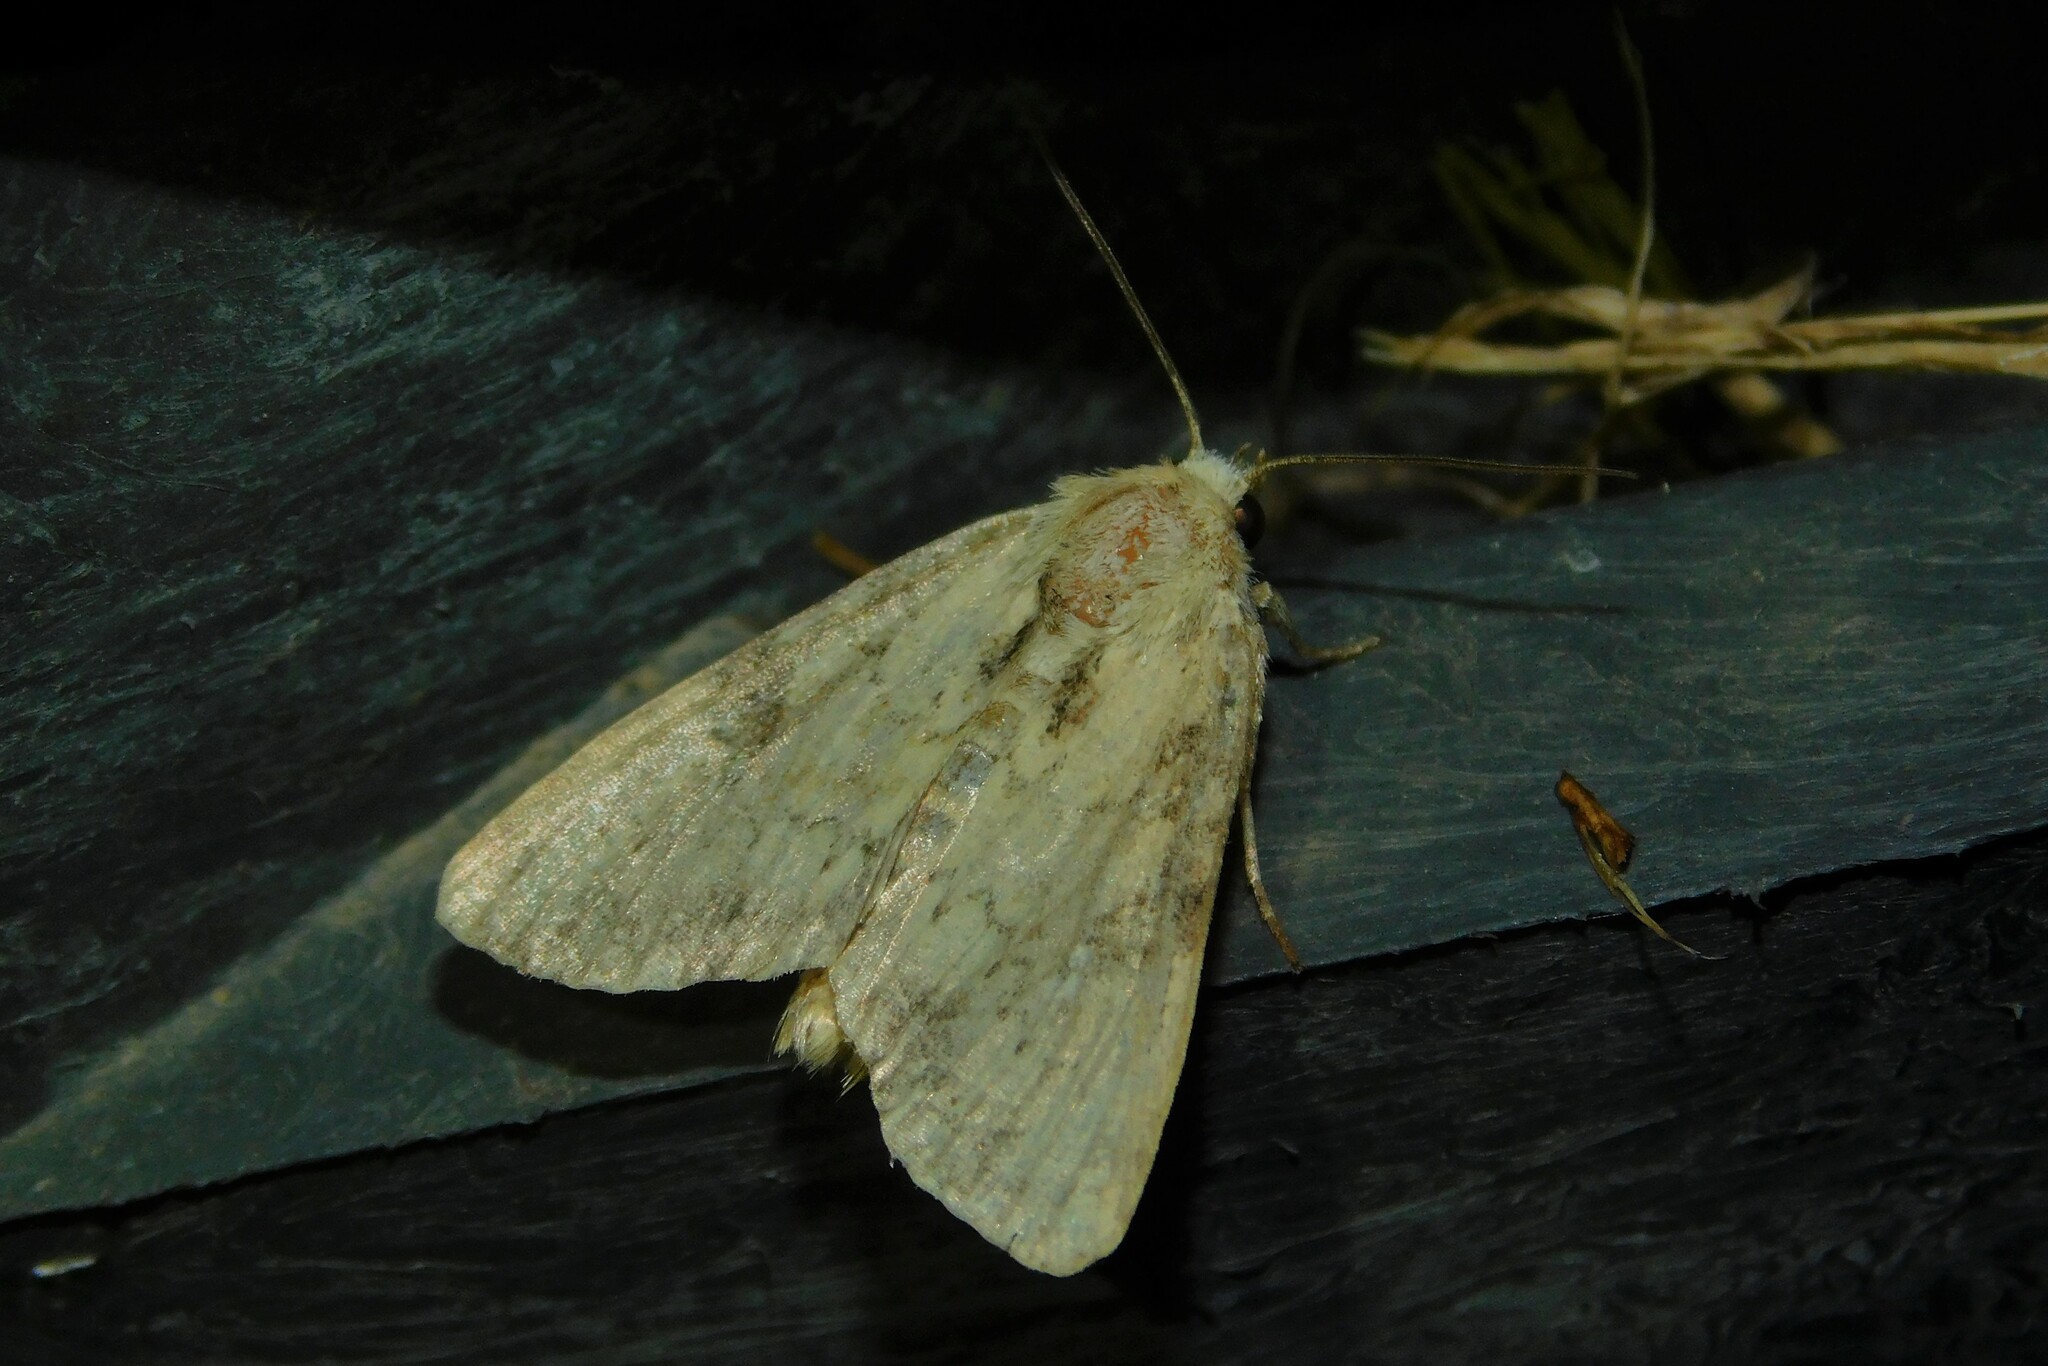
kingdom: Animalia
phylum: Arthropoda
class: Insecta
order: Lepidoptera
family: Noctuidae
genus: Loscopia
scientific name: Loscopia scolopacina
